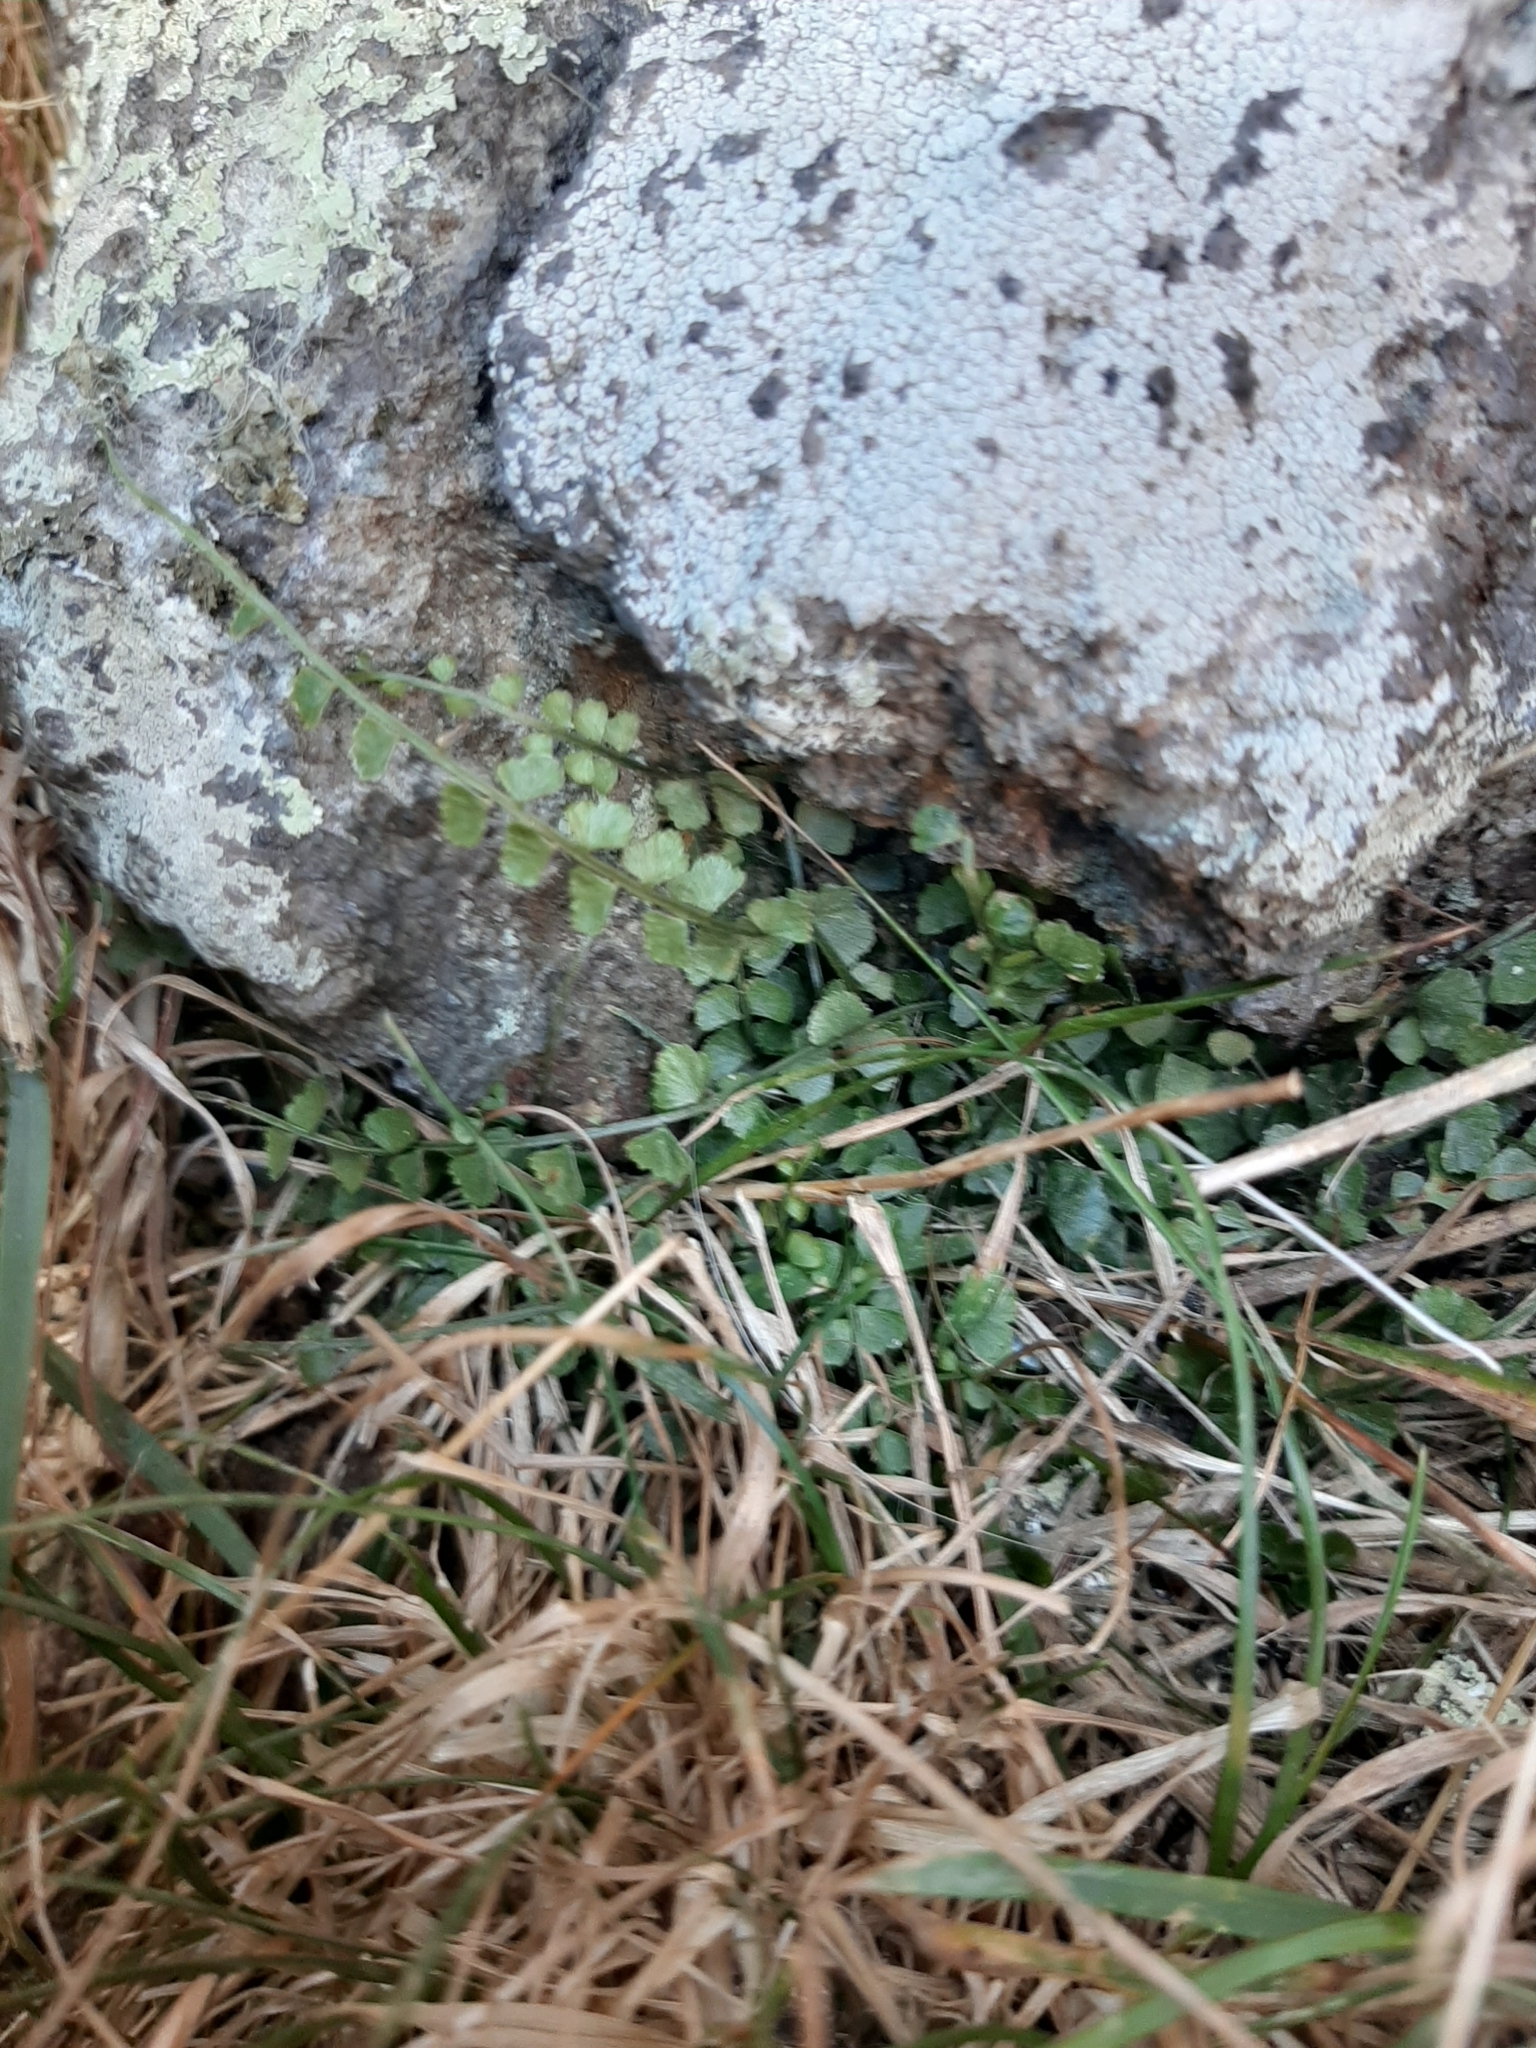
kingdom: Plantae
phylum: Tracheophyta
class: Polypodiopsida
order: Polypodiales
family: Aspleniaceae
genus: Asplenium
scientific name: Asplenium flabellifolium
